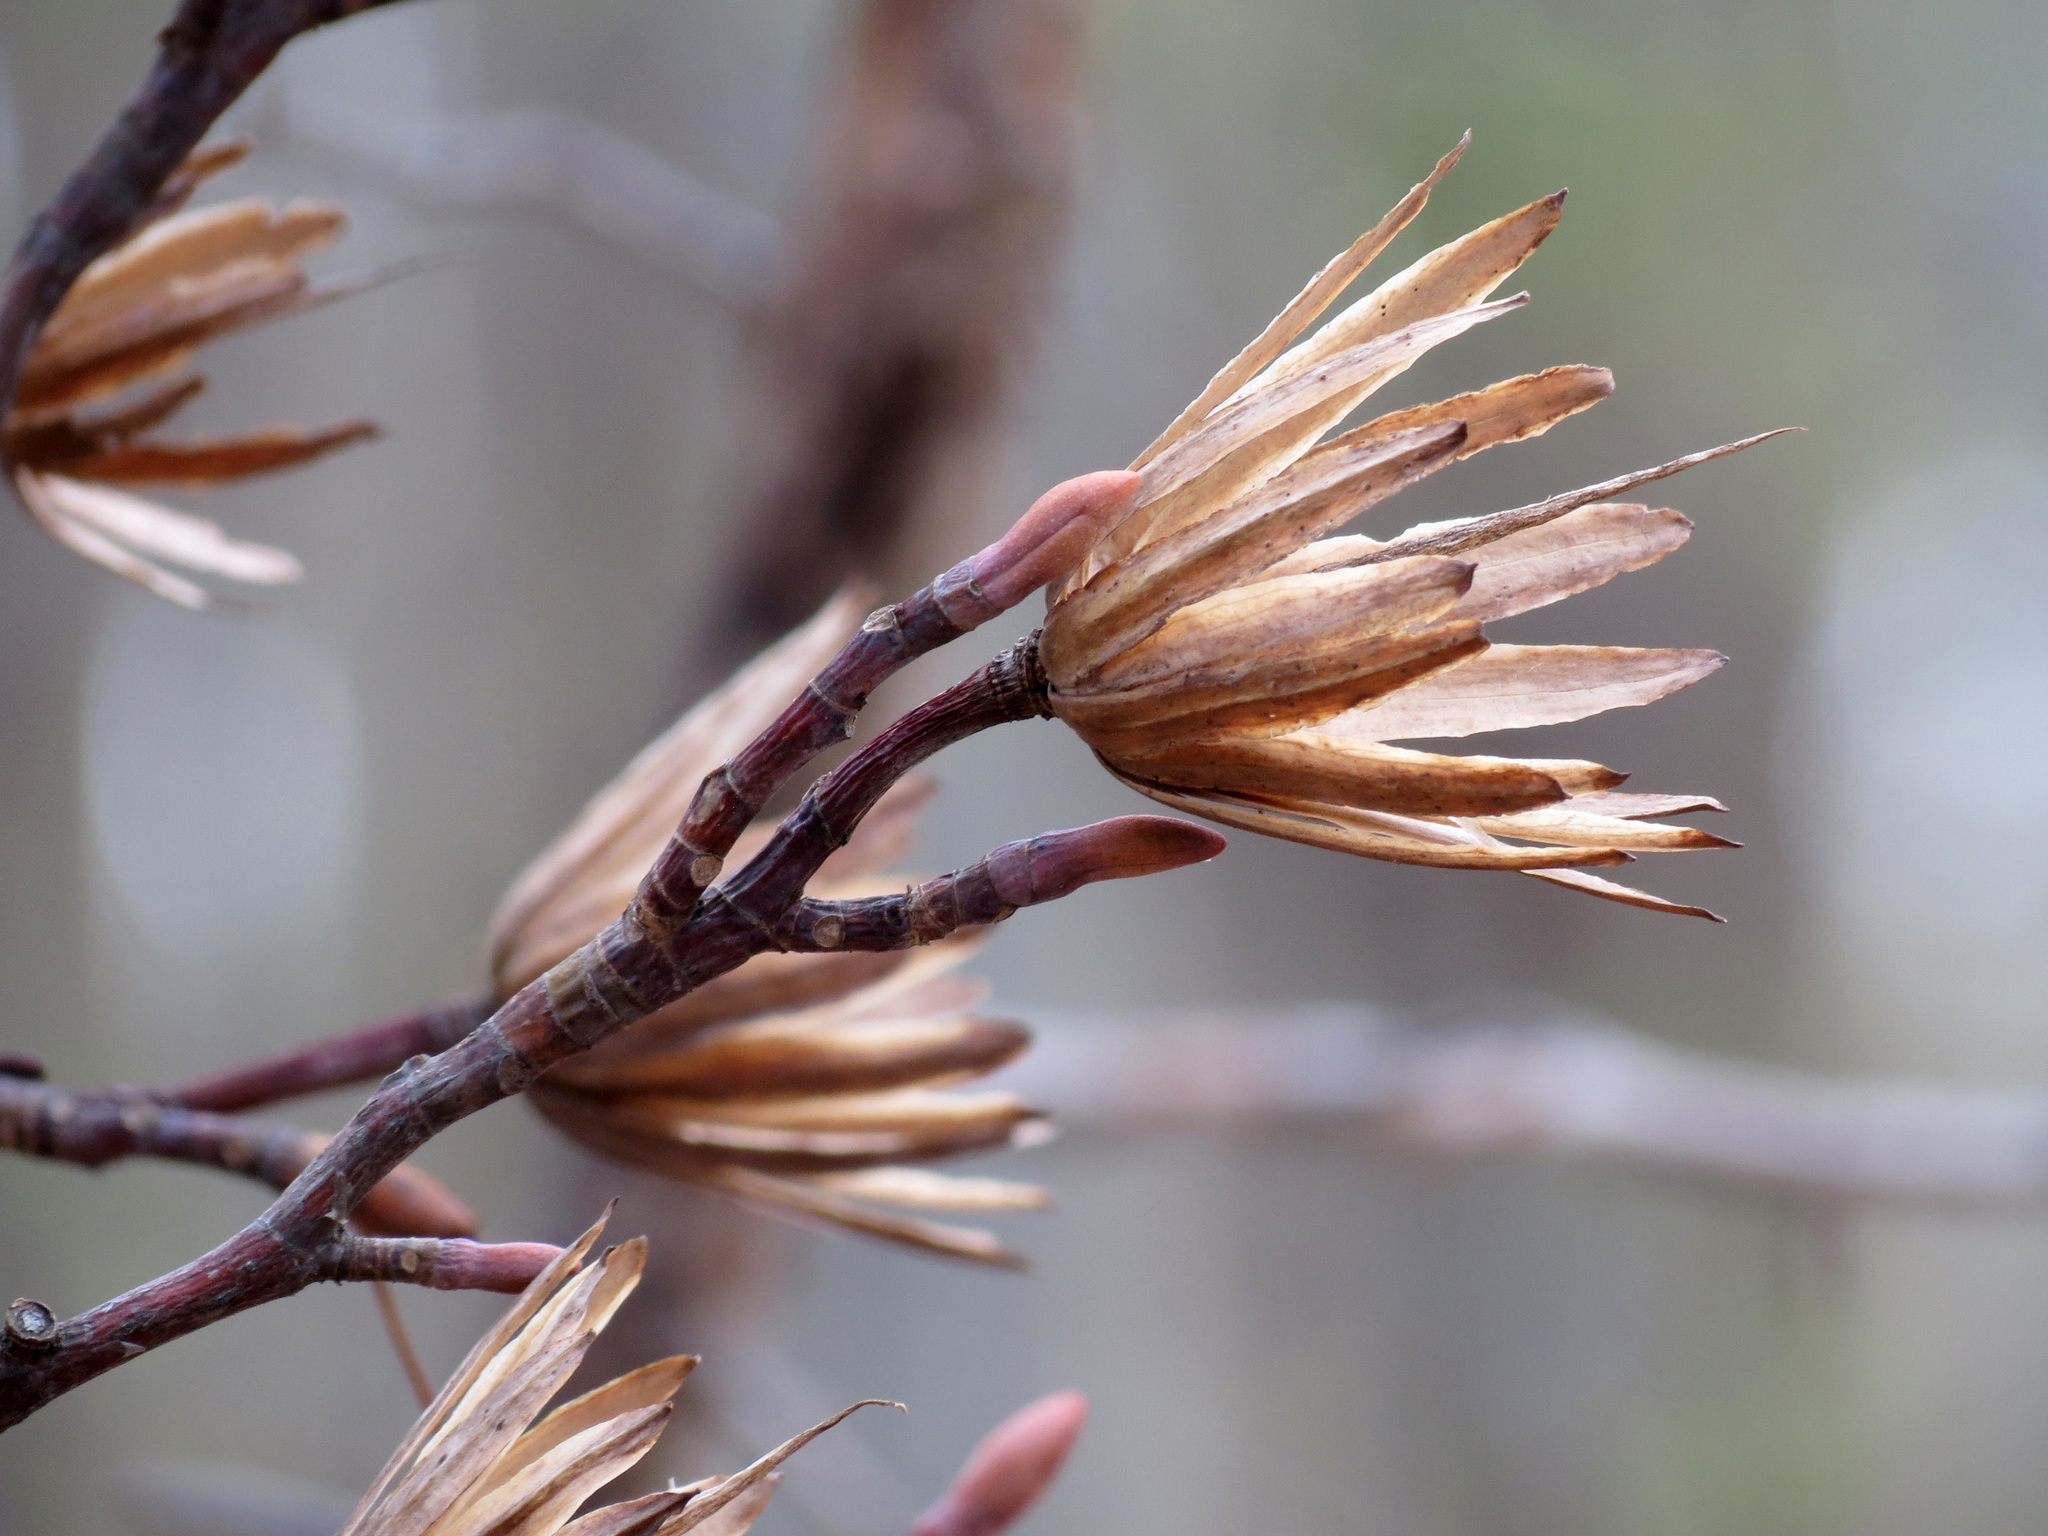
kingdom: Plantae
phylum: Tracheophyta
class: Magnoliopsida
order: Magnoliales
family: Magnoliaceae
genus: Liriodendron
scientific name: Liriodendron tulipifera
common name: Tulip tree
